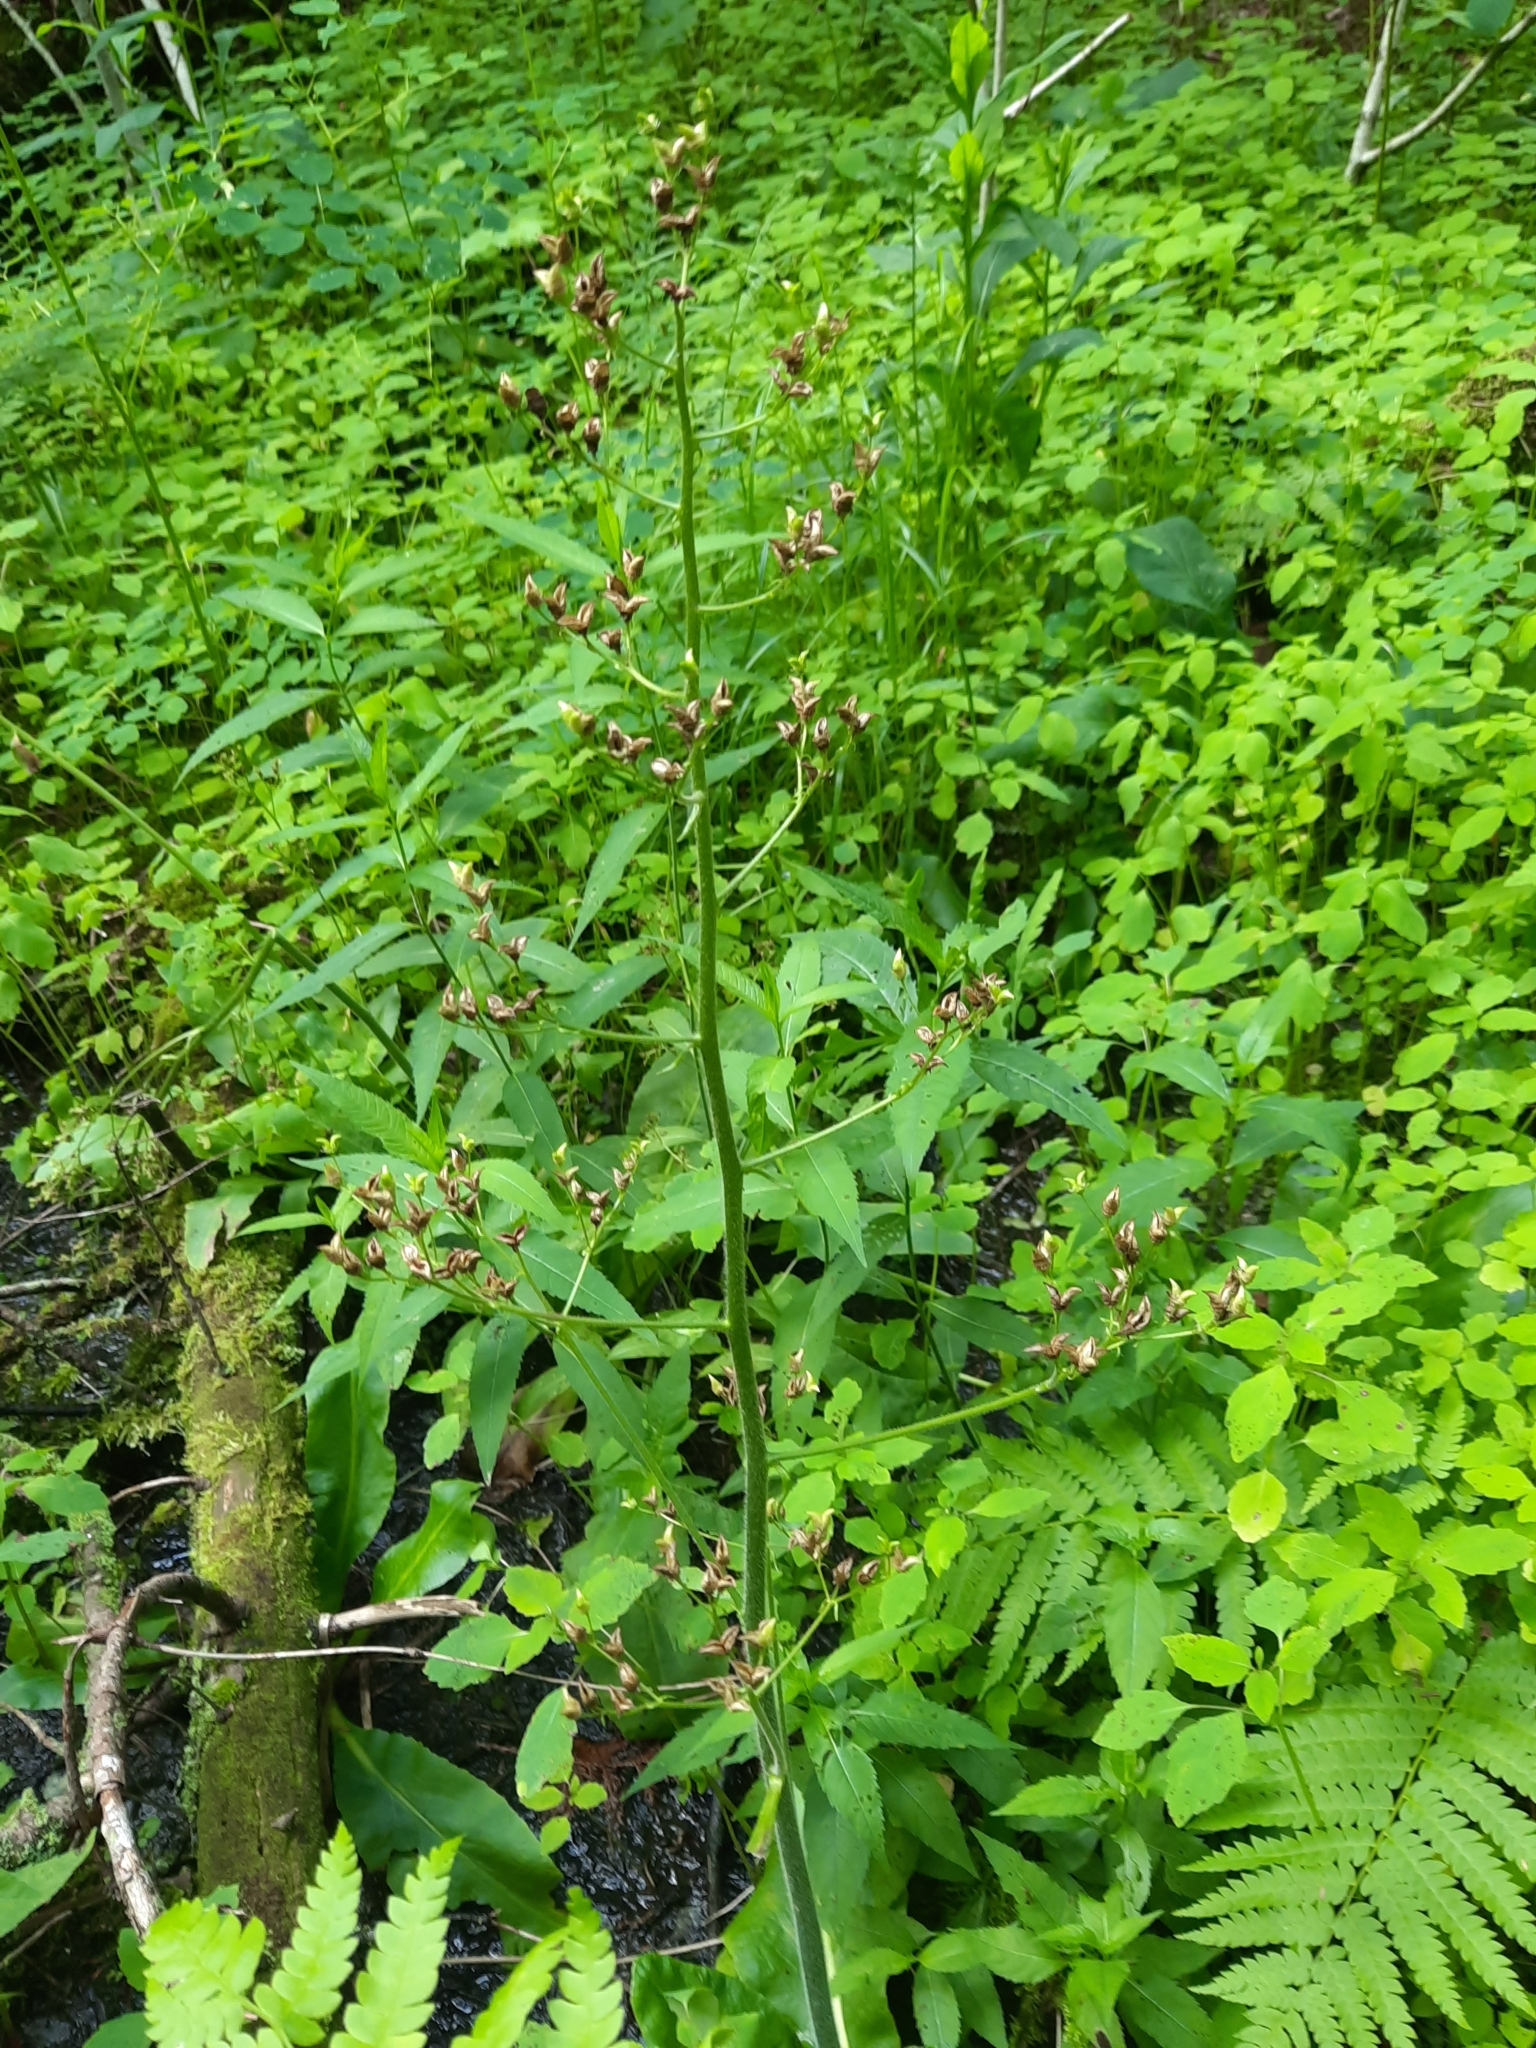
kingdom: Plantae
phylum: Tracheophyta
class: Magnoliopsida
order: Saxifragales
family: Saxifragaceae
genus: Micranthes
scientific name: Micranthes pensylvanica
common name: Marsh saxifrage
